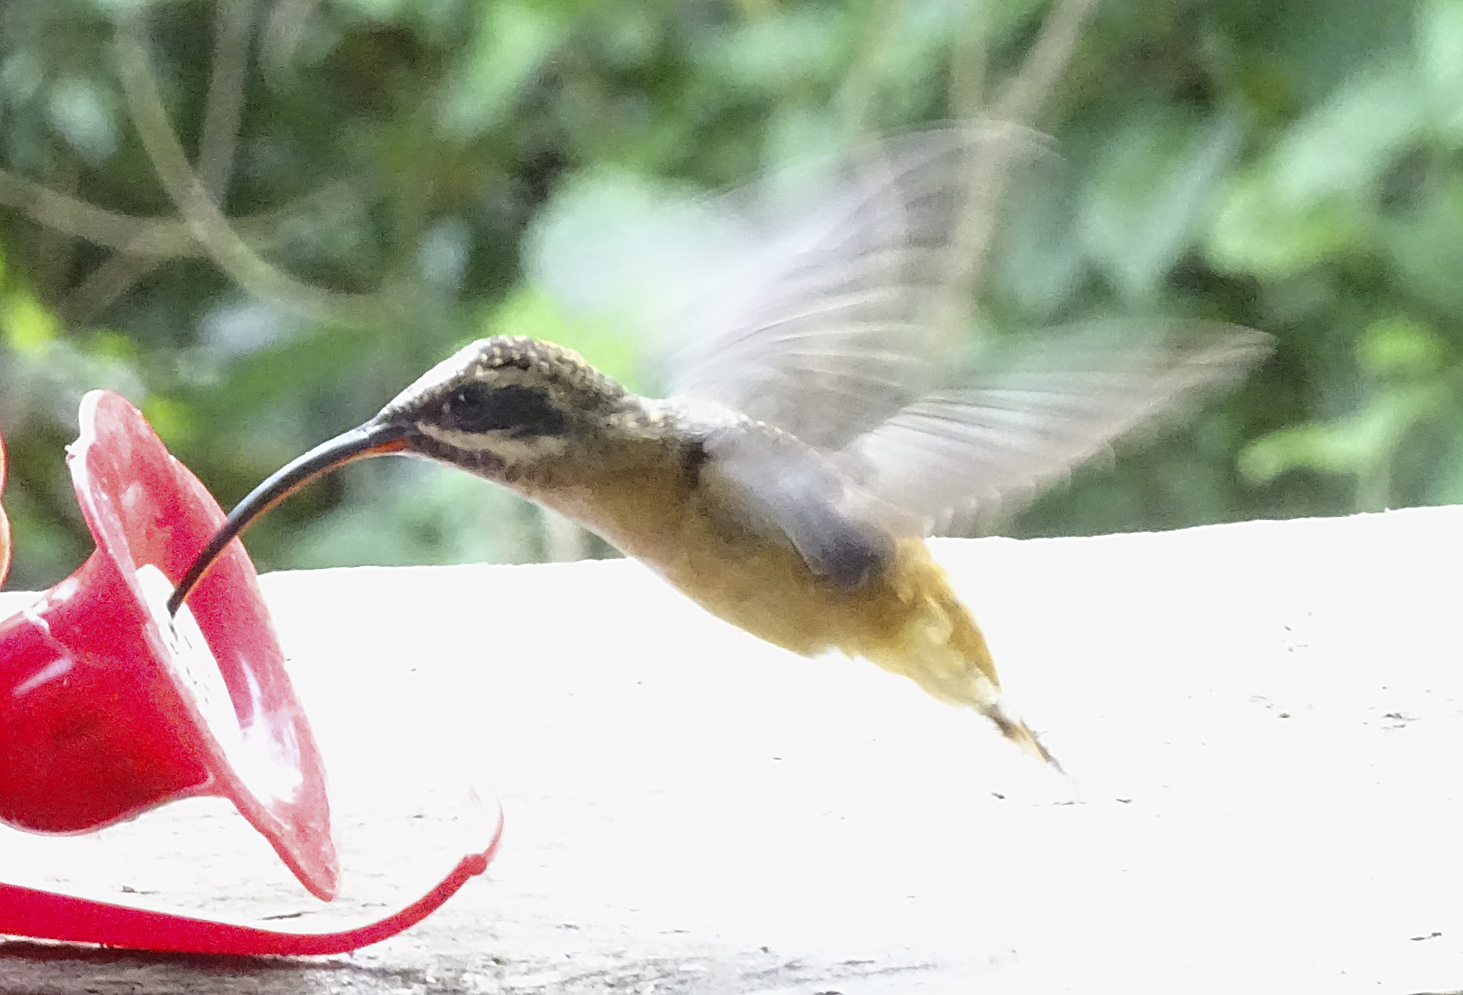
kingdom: Animalia
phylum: Chordata
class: Aves
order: Apodiformes
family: Trochilidae
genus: Phaethornis
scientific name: Phaethornis syrmatophorus
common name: Tawny-bellied hermit
